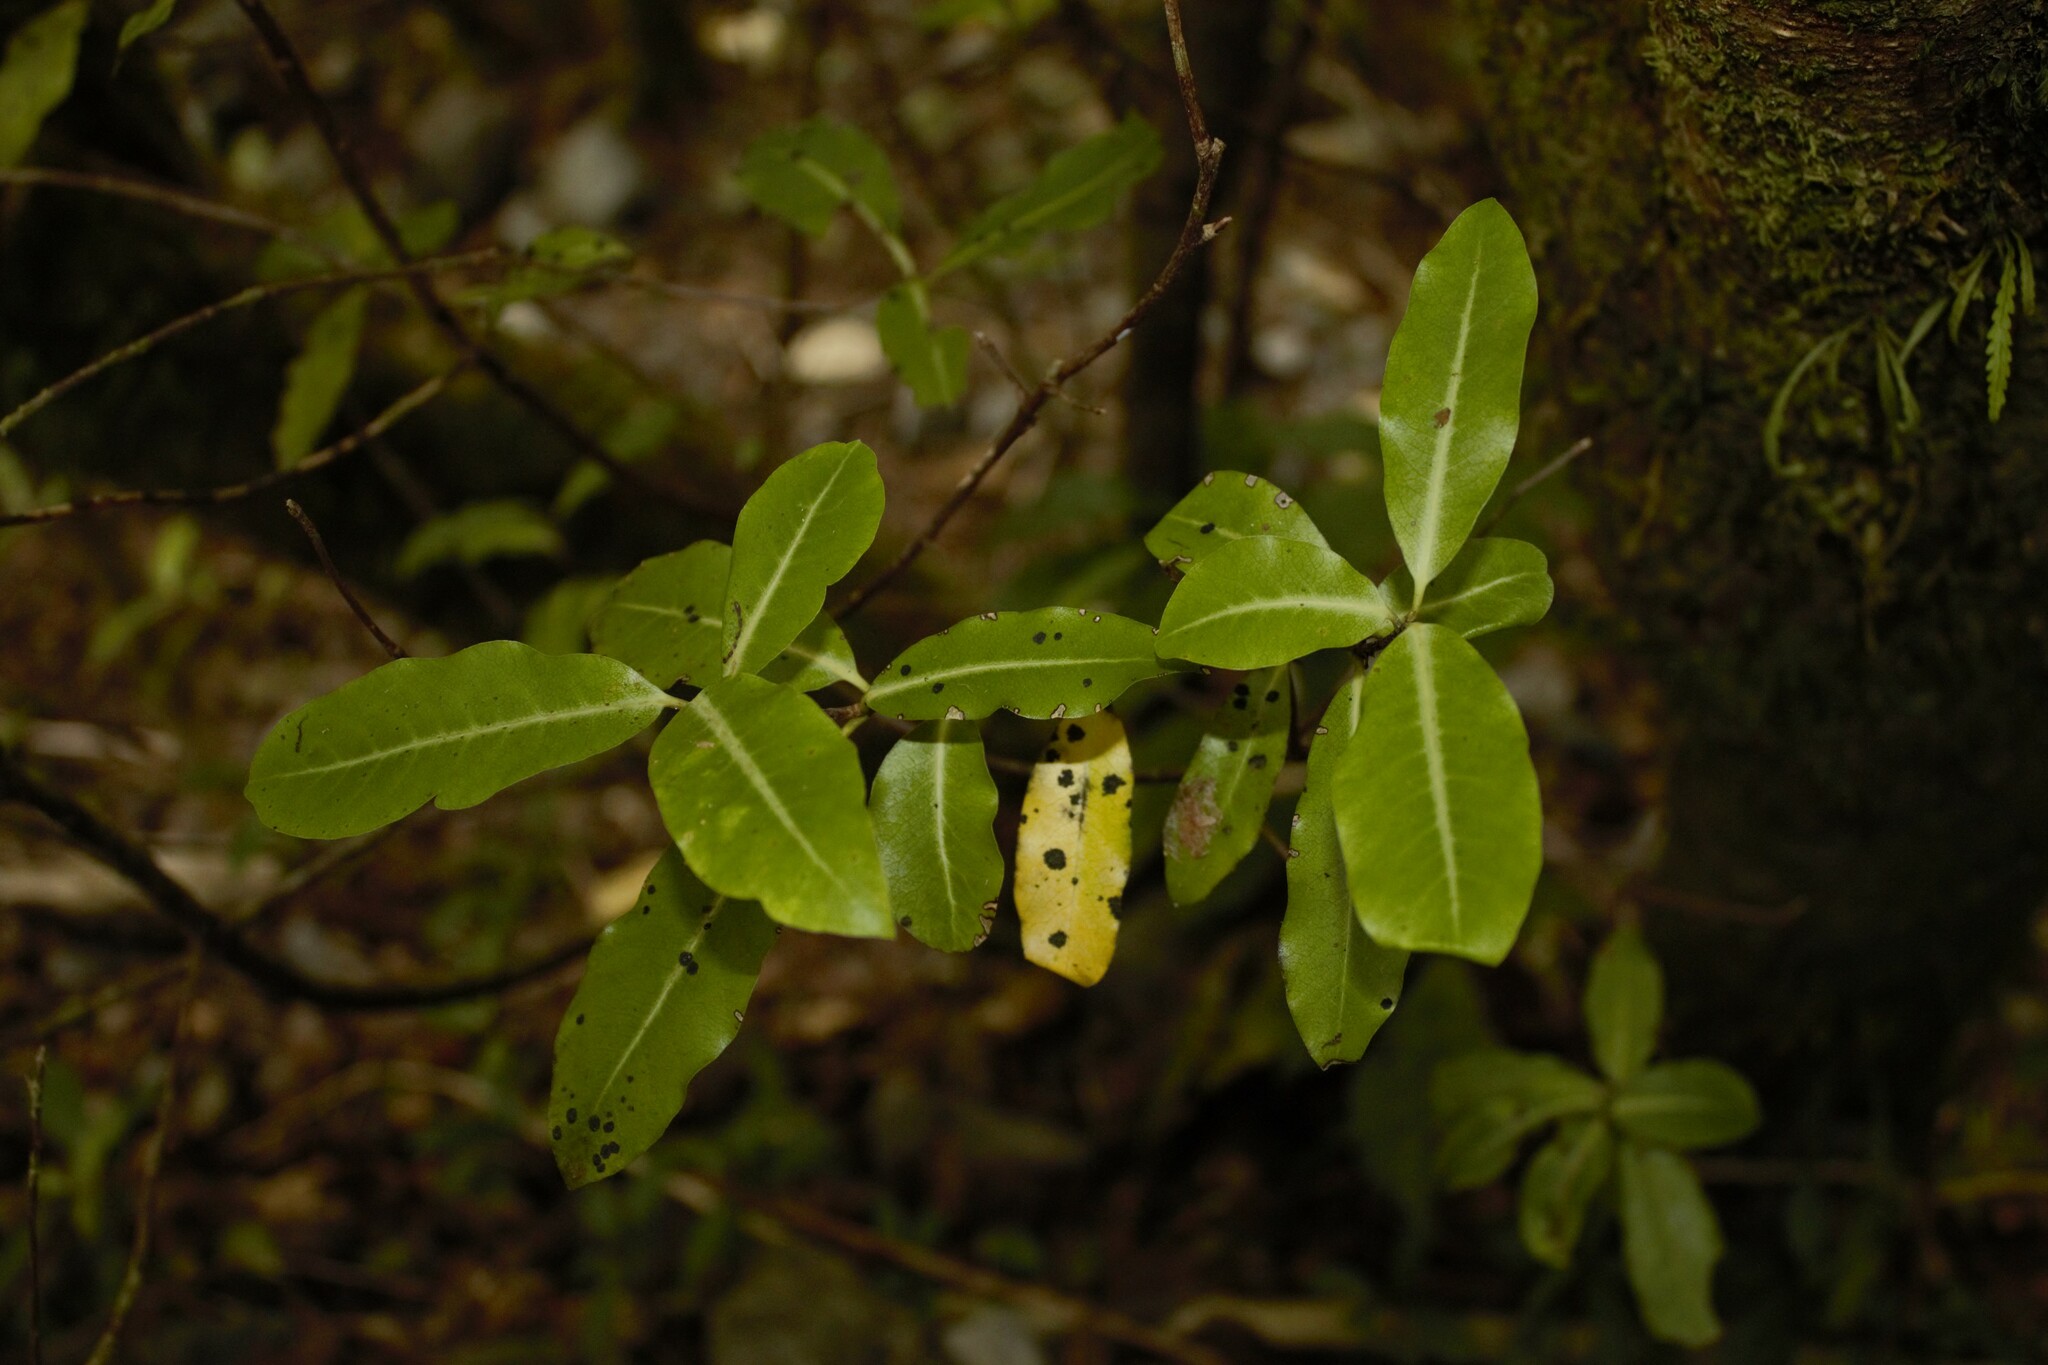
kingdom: Plantae
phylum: Tracheophyta
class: Magnoliopsida
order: Apiales
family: Pittosporaceae
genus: Pittosporum
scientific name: Pittosporum eugenioides
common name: Lemonwood
